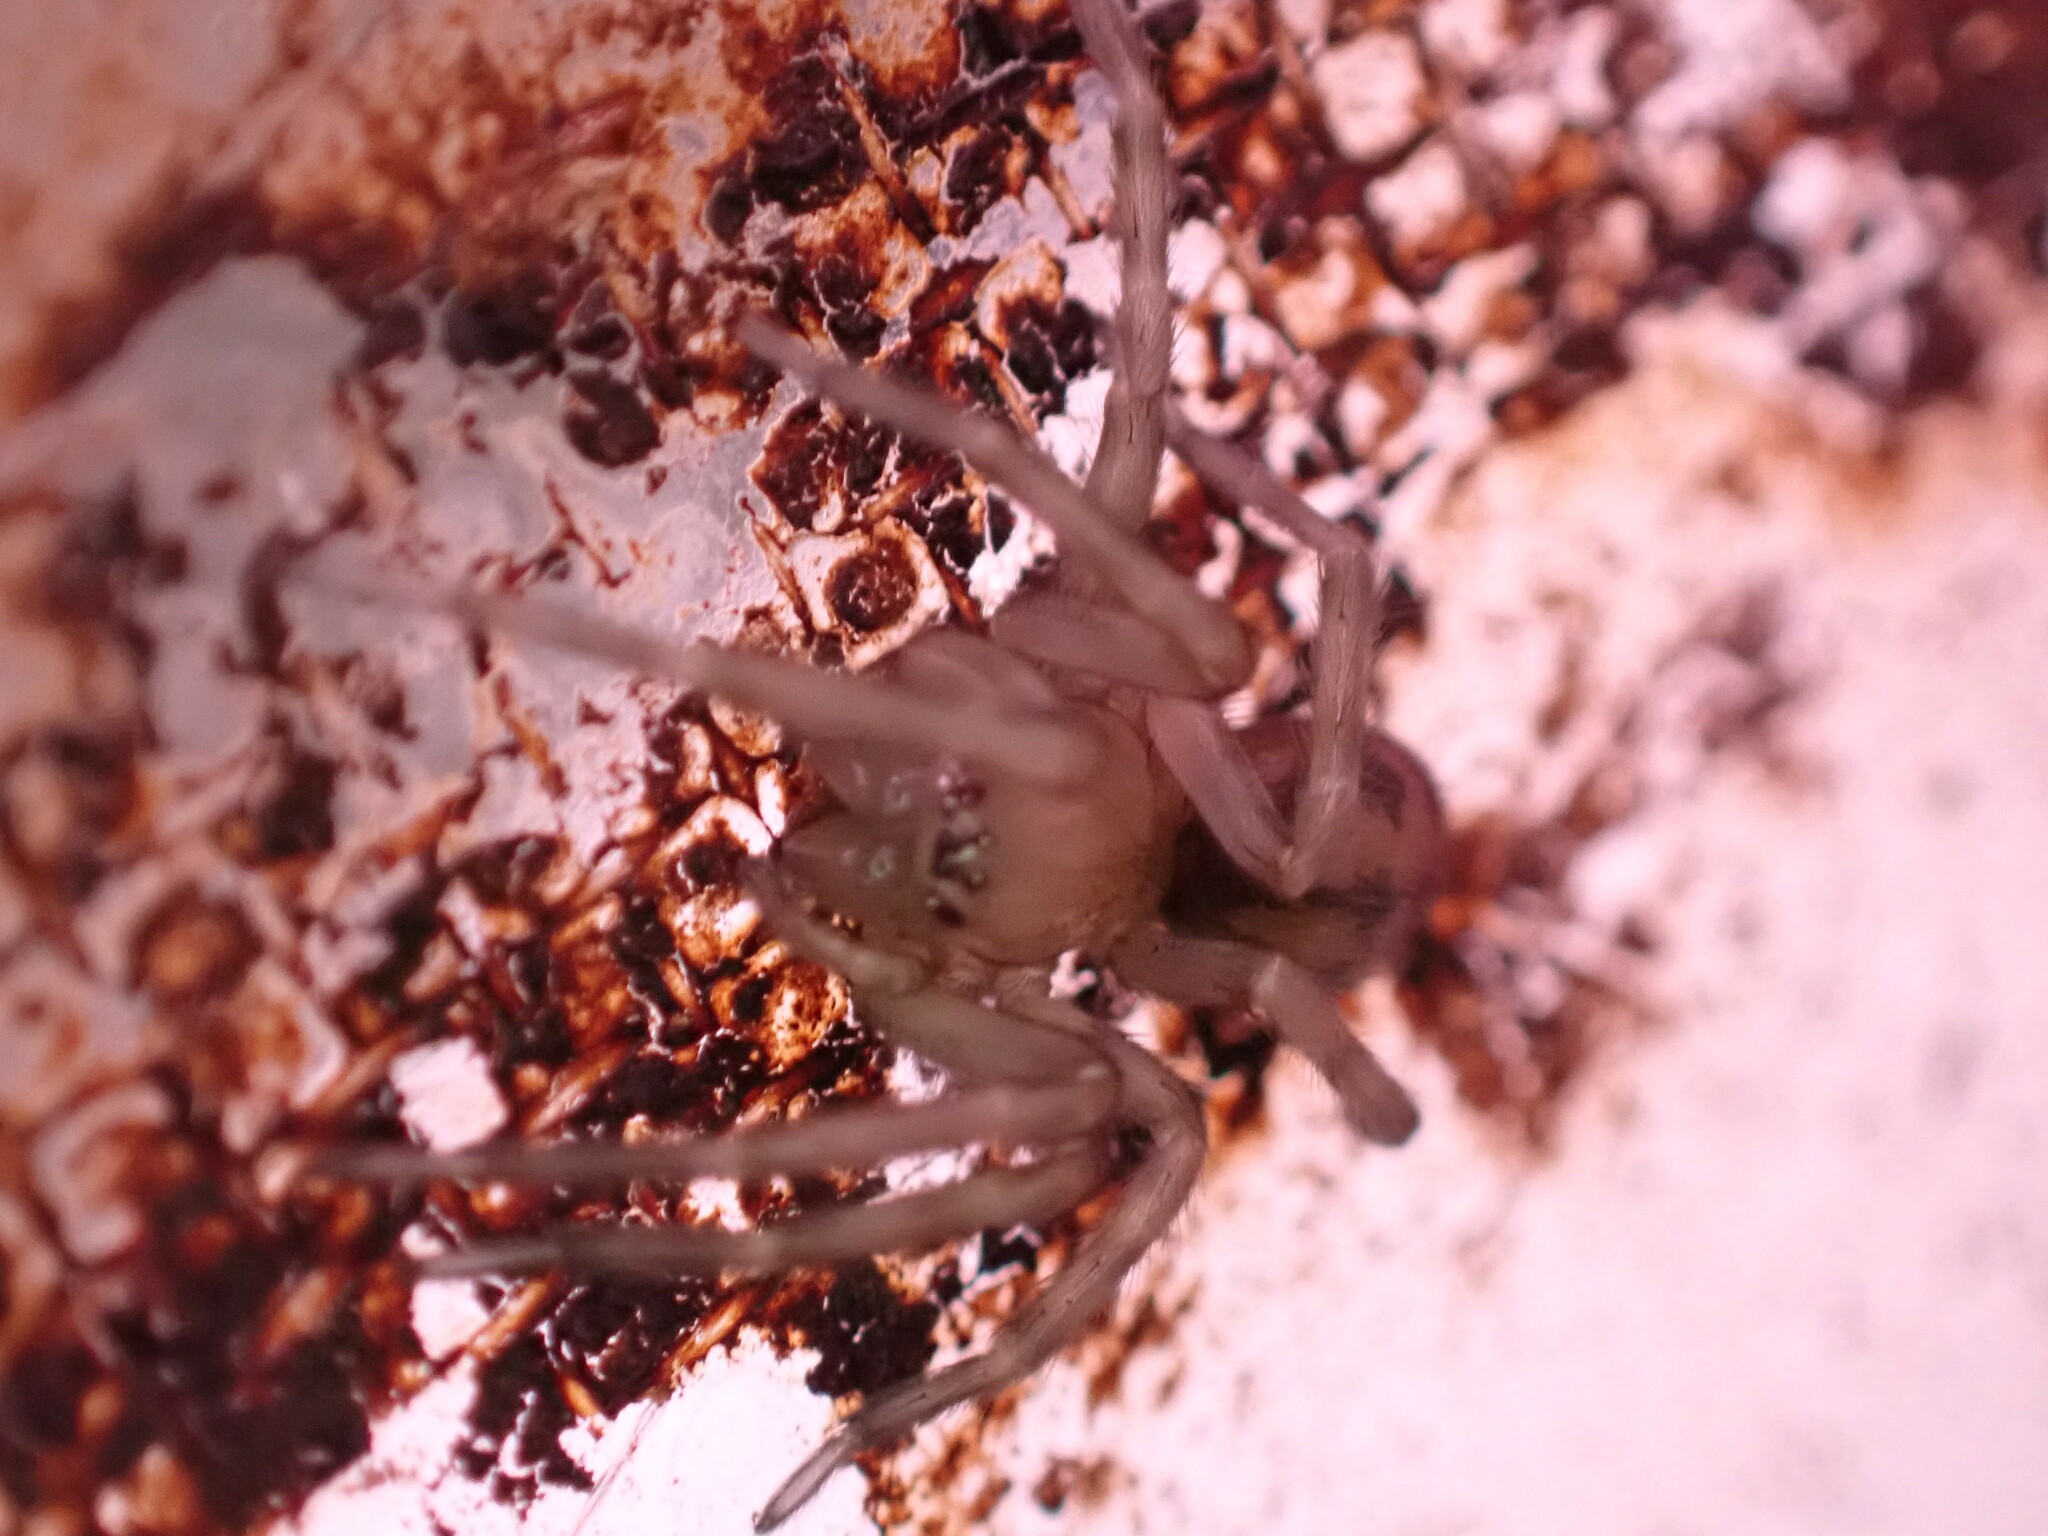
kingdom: Animalia
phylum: Arthropoda
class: Arachnida
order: Araneae
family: Amaurobiidae
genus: Callobius
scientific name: Callobius pictus
